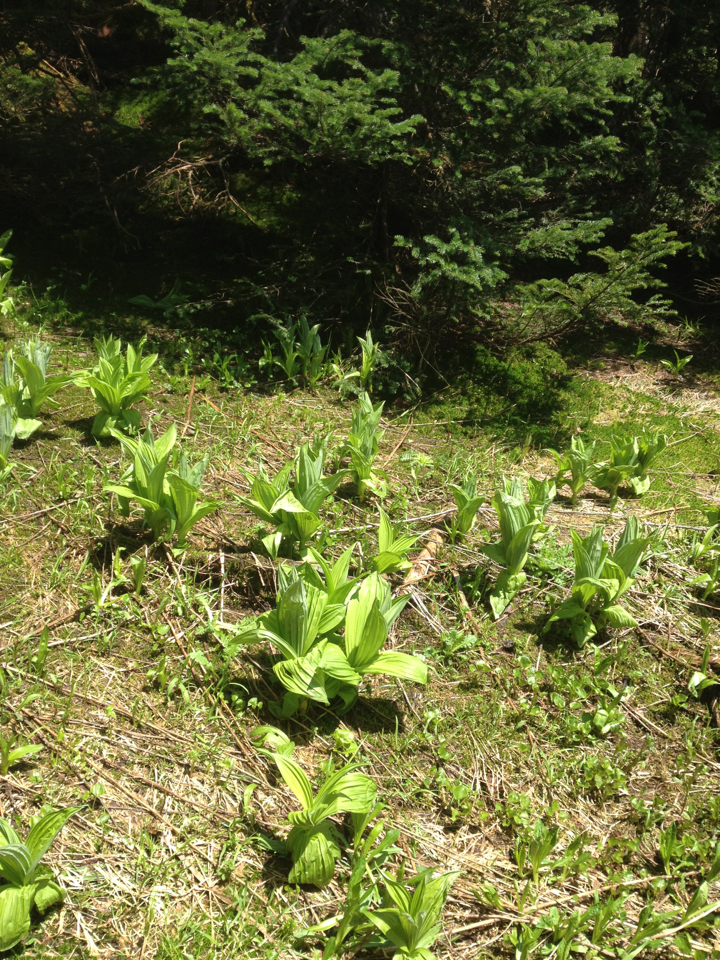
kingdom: Plantae
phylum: Tracheophyta
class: Liliopsida
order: Liliales
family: Melanthiaceae
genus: Veratrum
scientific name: Veratrum viride
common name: American false hellebore
